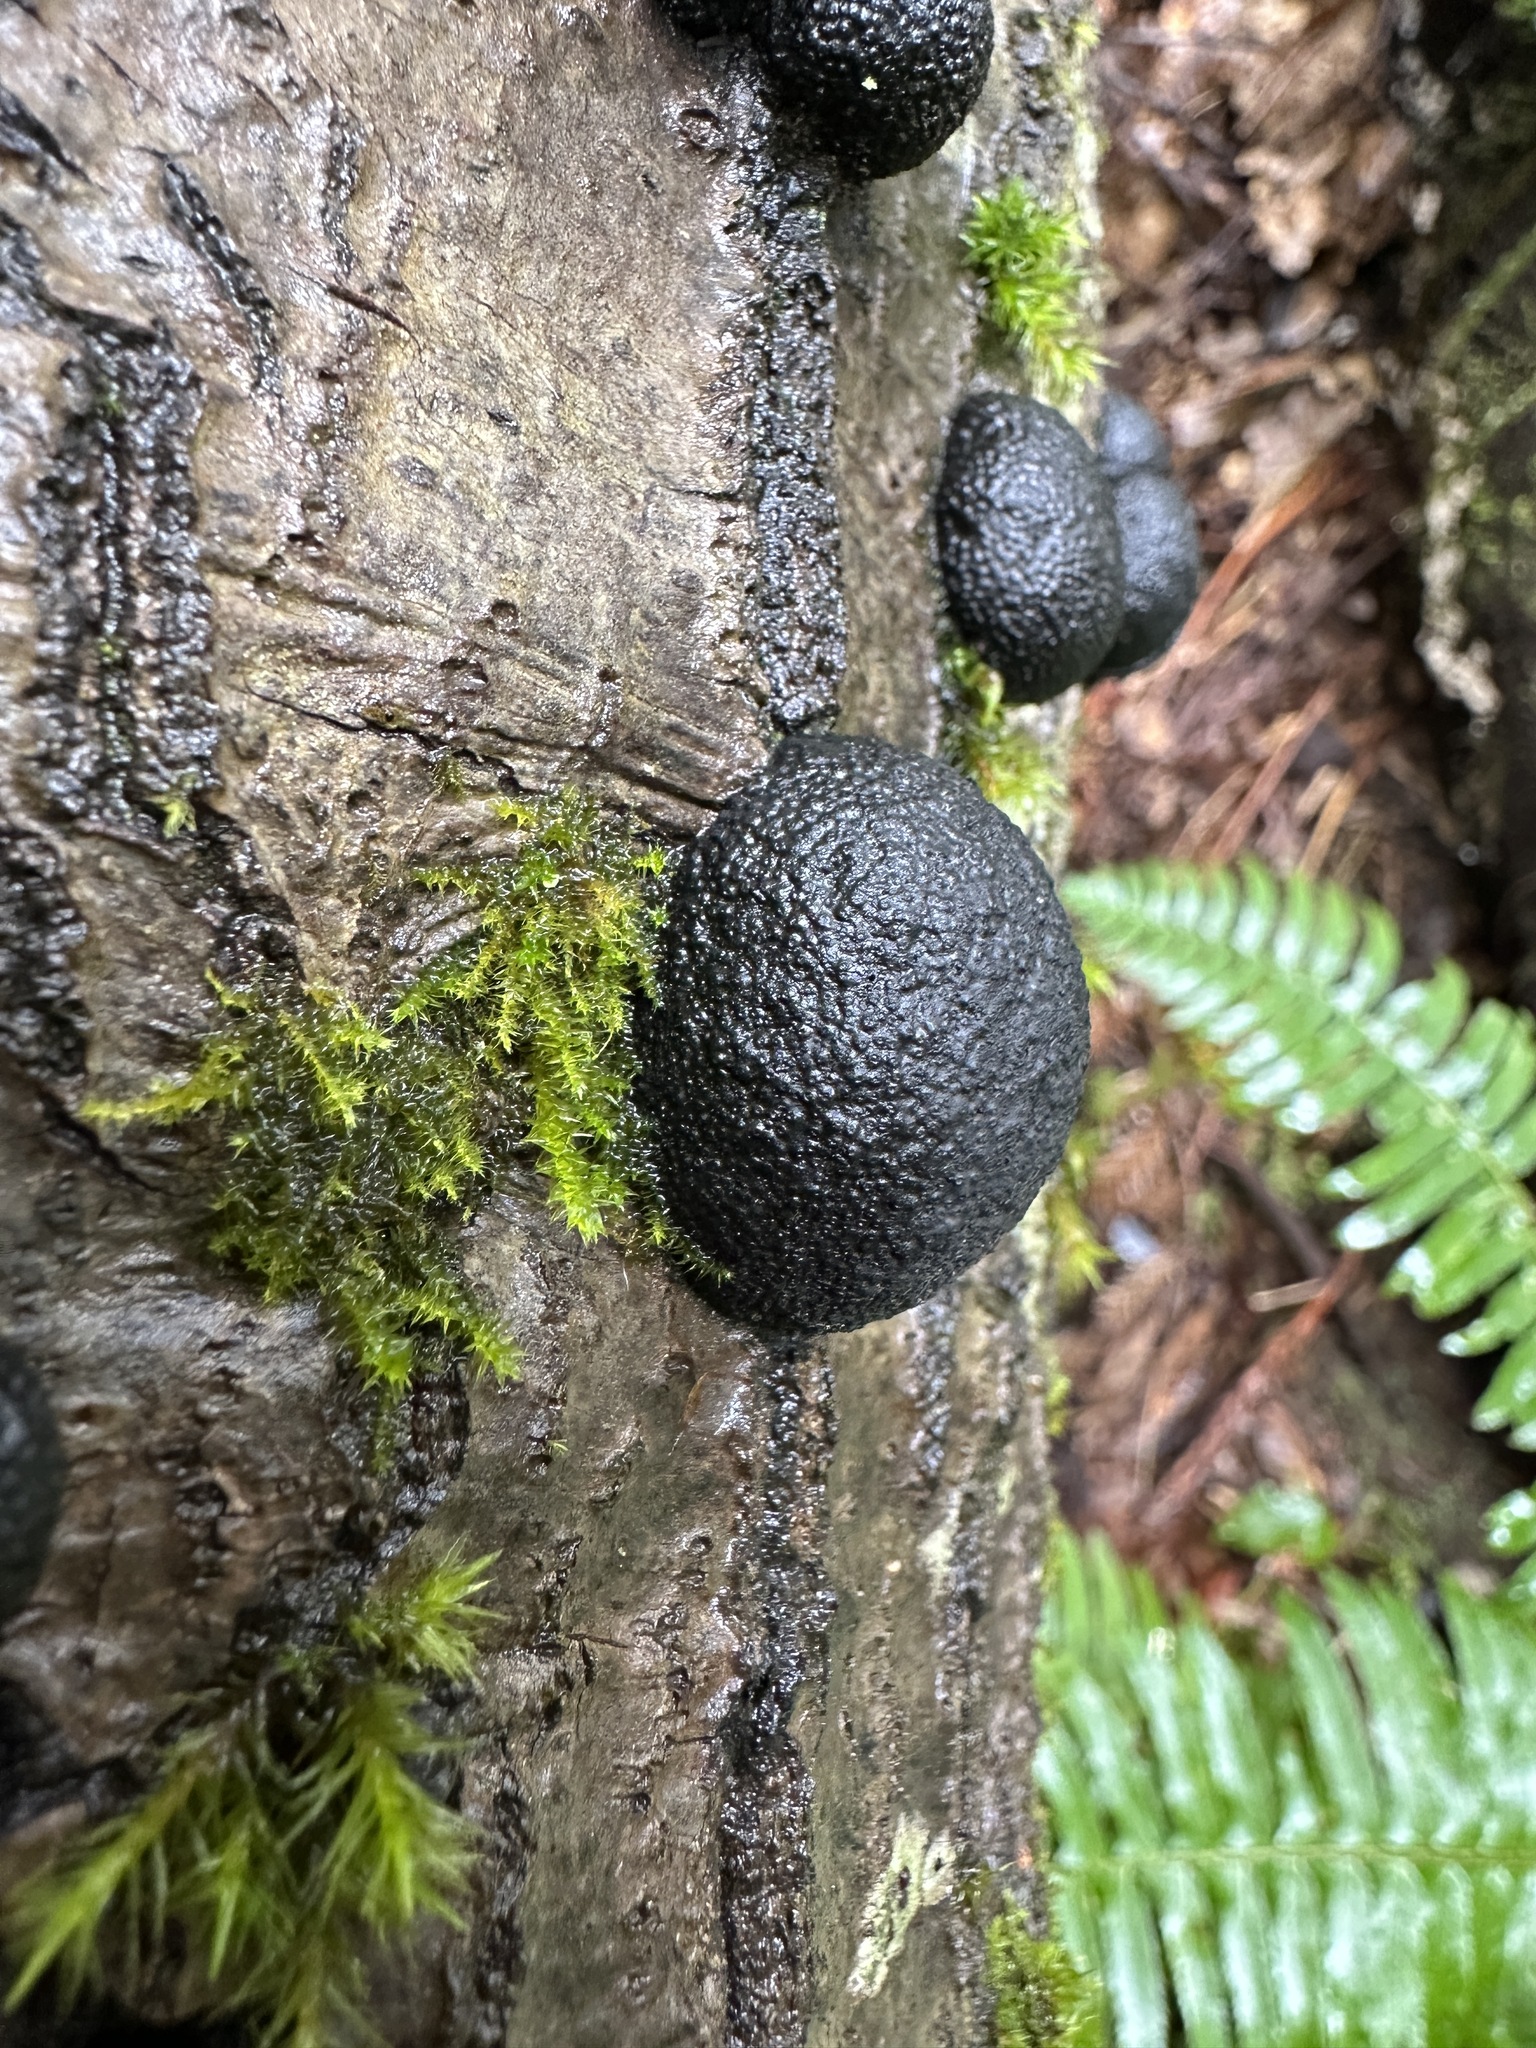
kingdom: Fungi
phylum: Ascomycota
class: Sordariomycetes
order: Xylariales
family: Hypoxylaceae
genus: Annulohypoxylon
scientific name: Annulohypoxylon thouarsianum
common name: Cramp balls
